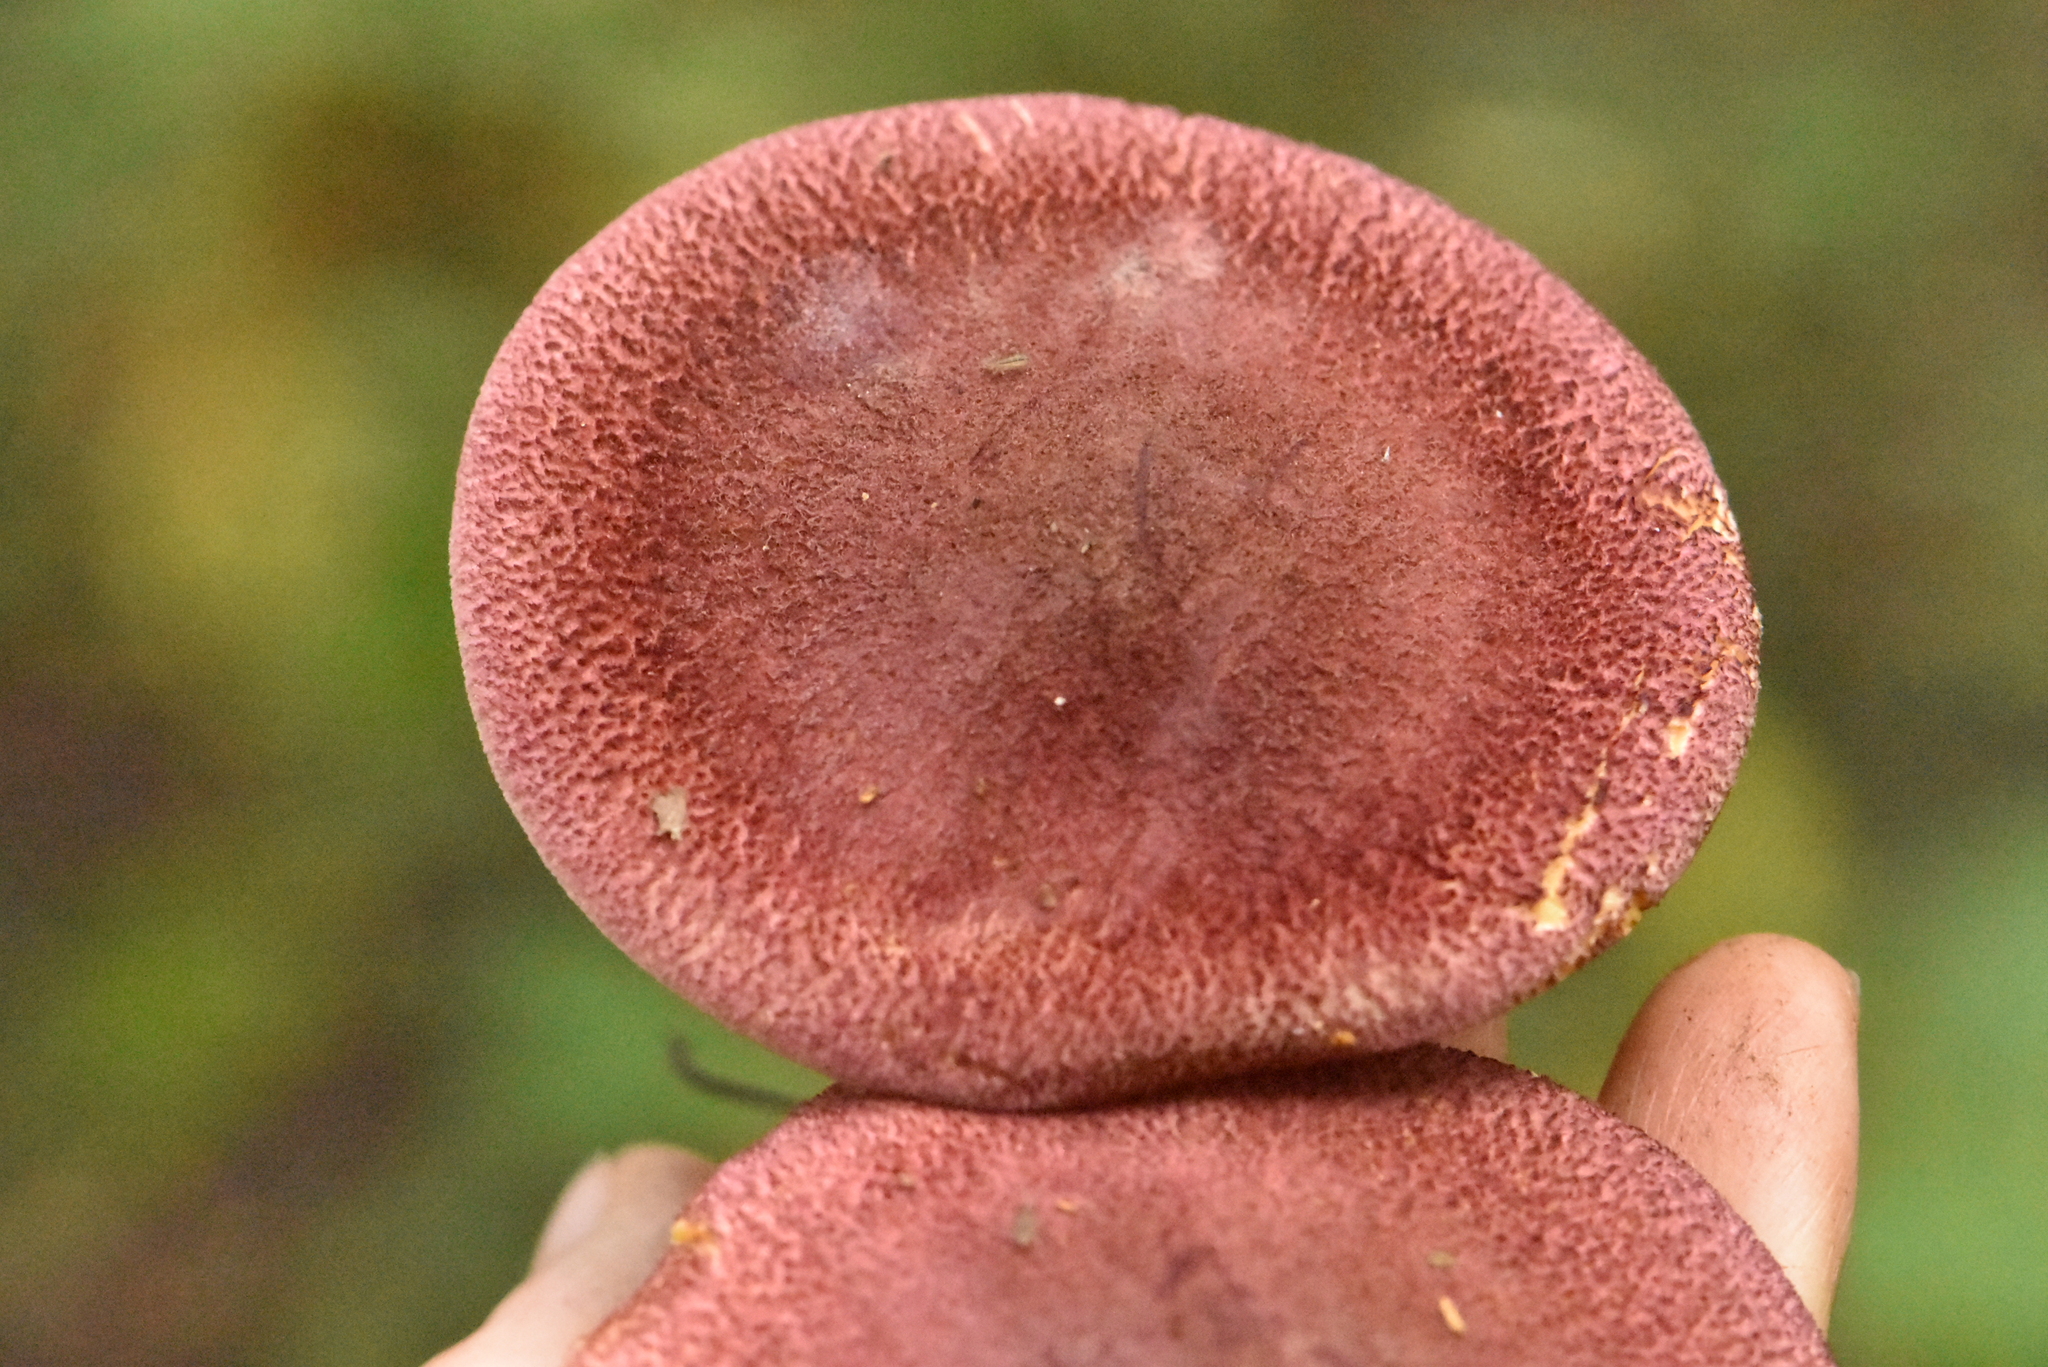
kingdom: Fungi
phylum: Basidiomycota
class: Agaricomycetes
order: Agaricales
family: Tricholomataceae
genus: Tricholomopsis
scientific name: Tricholomopsis rutilans
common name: Plums and custard
